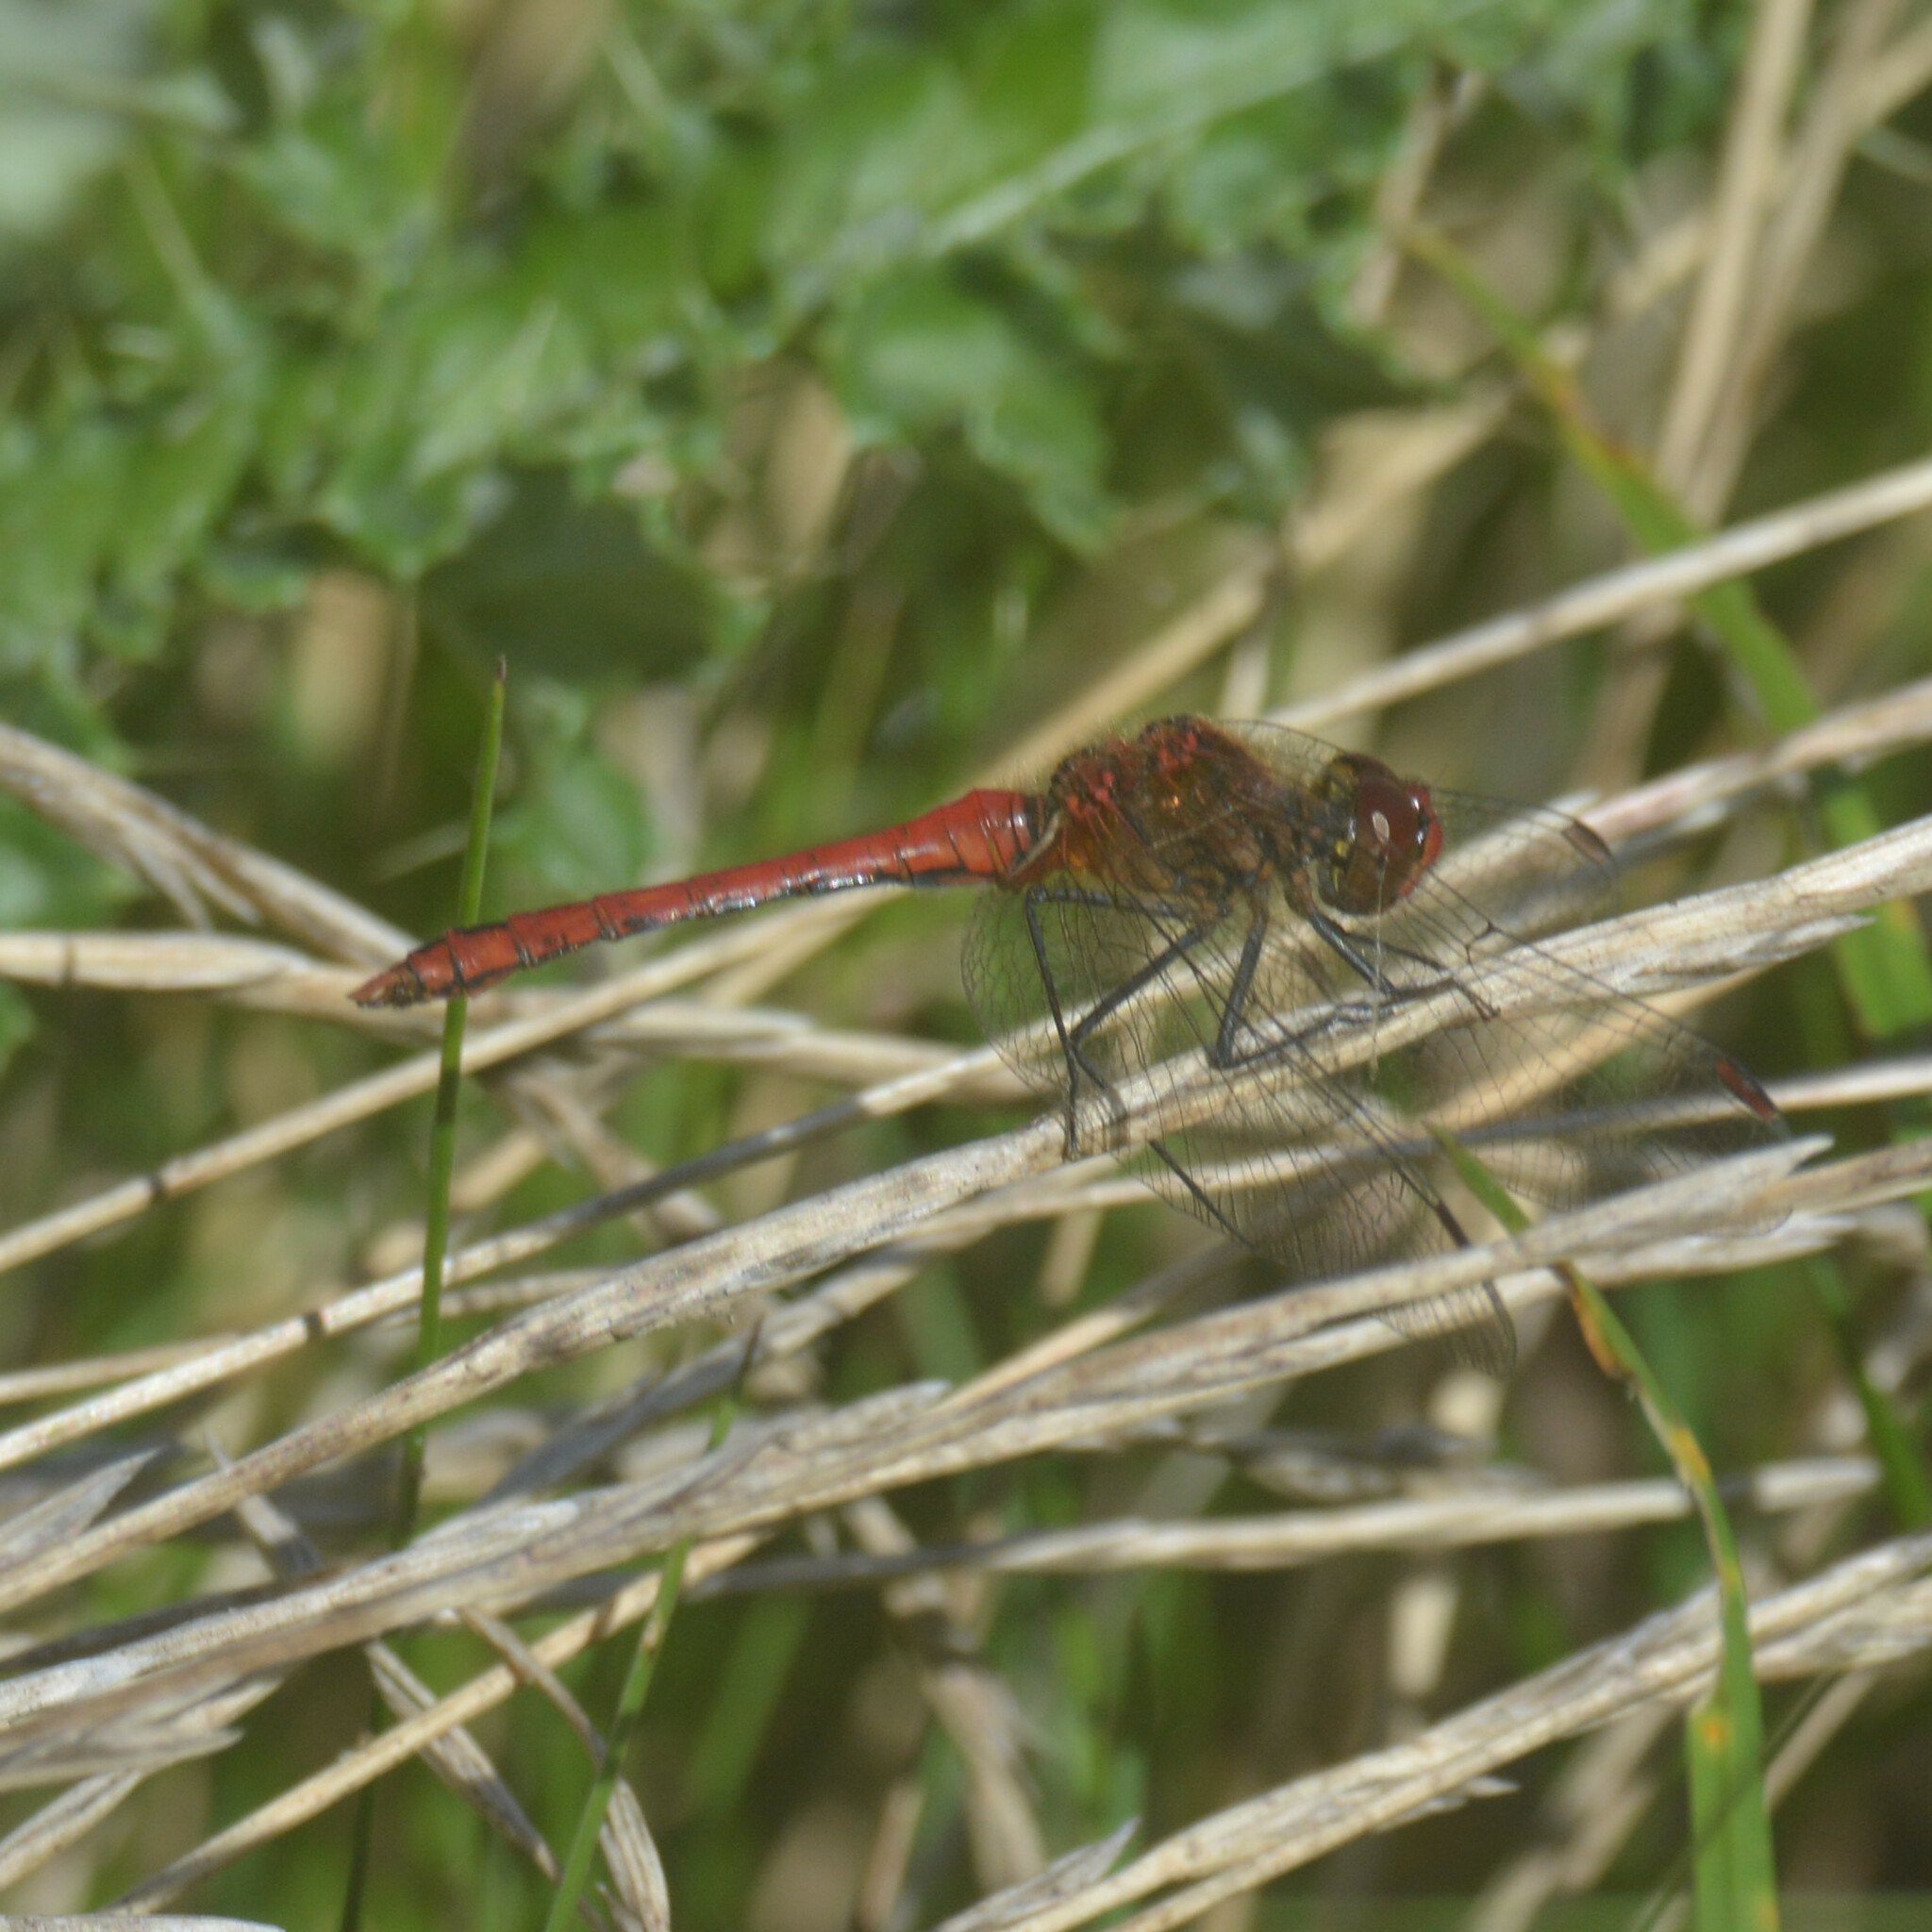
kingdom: Animalia
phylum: Arthropoda
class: Insecta
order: Odonata
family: Libellulidae
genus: Sympetrum
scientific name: Sympetrum sanguineum
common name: Ruddy darter
